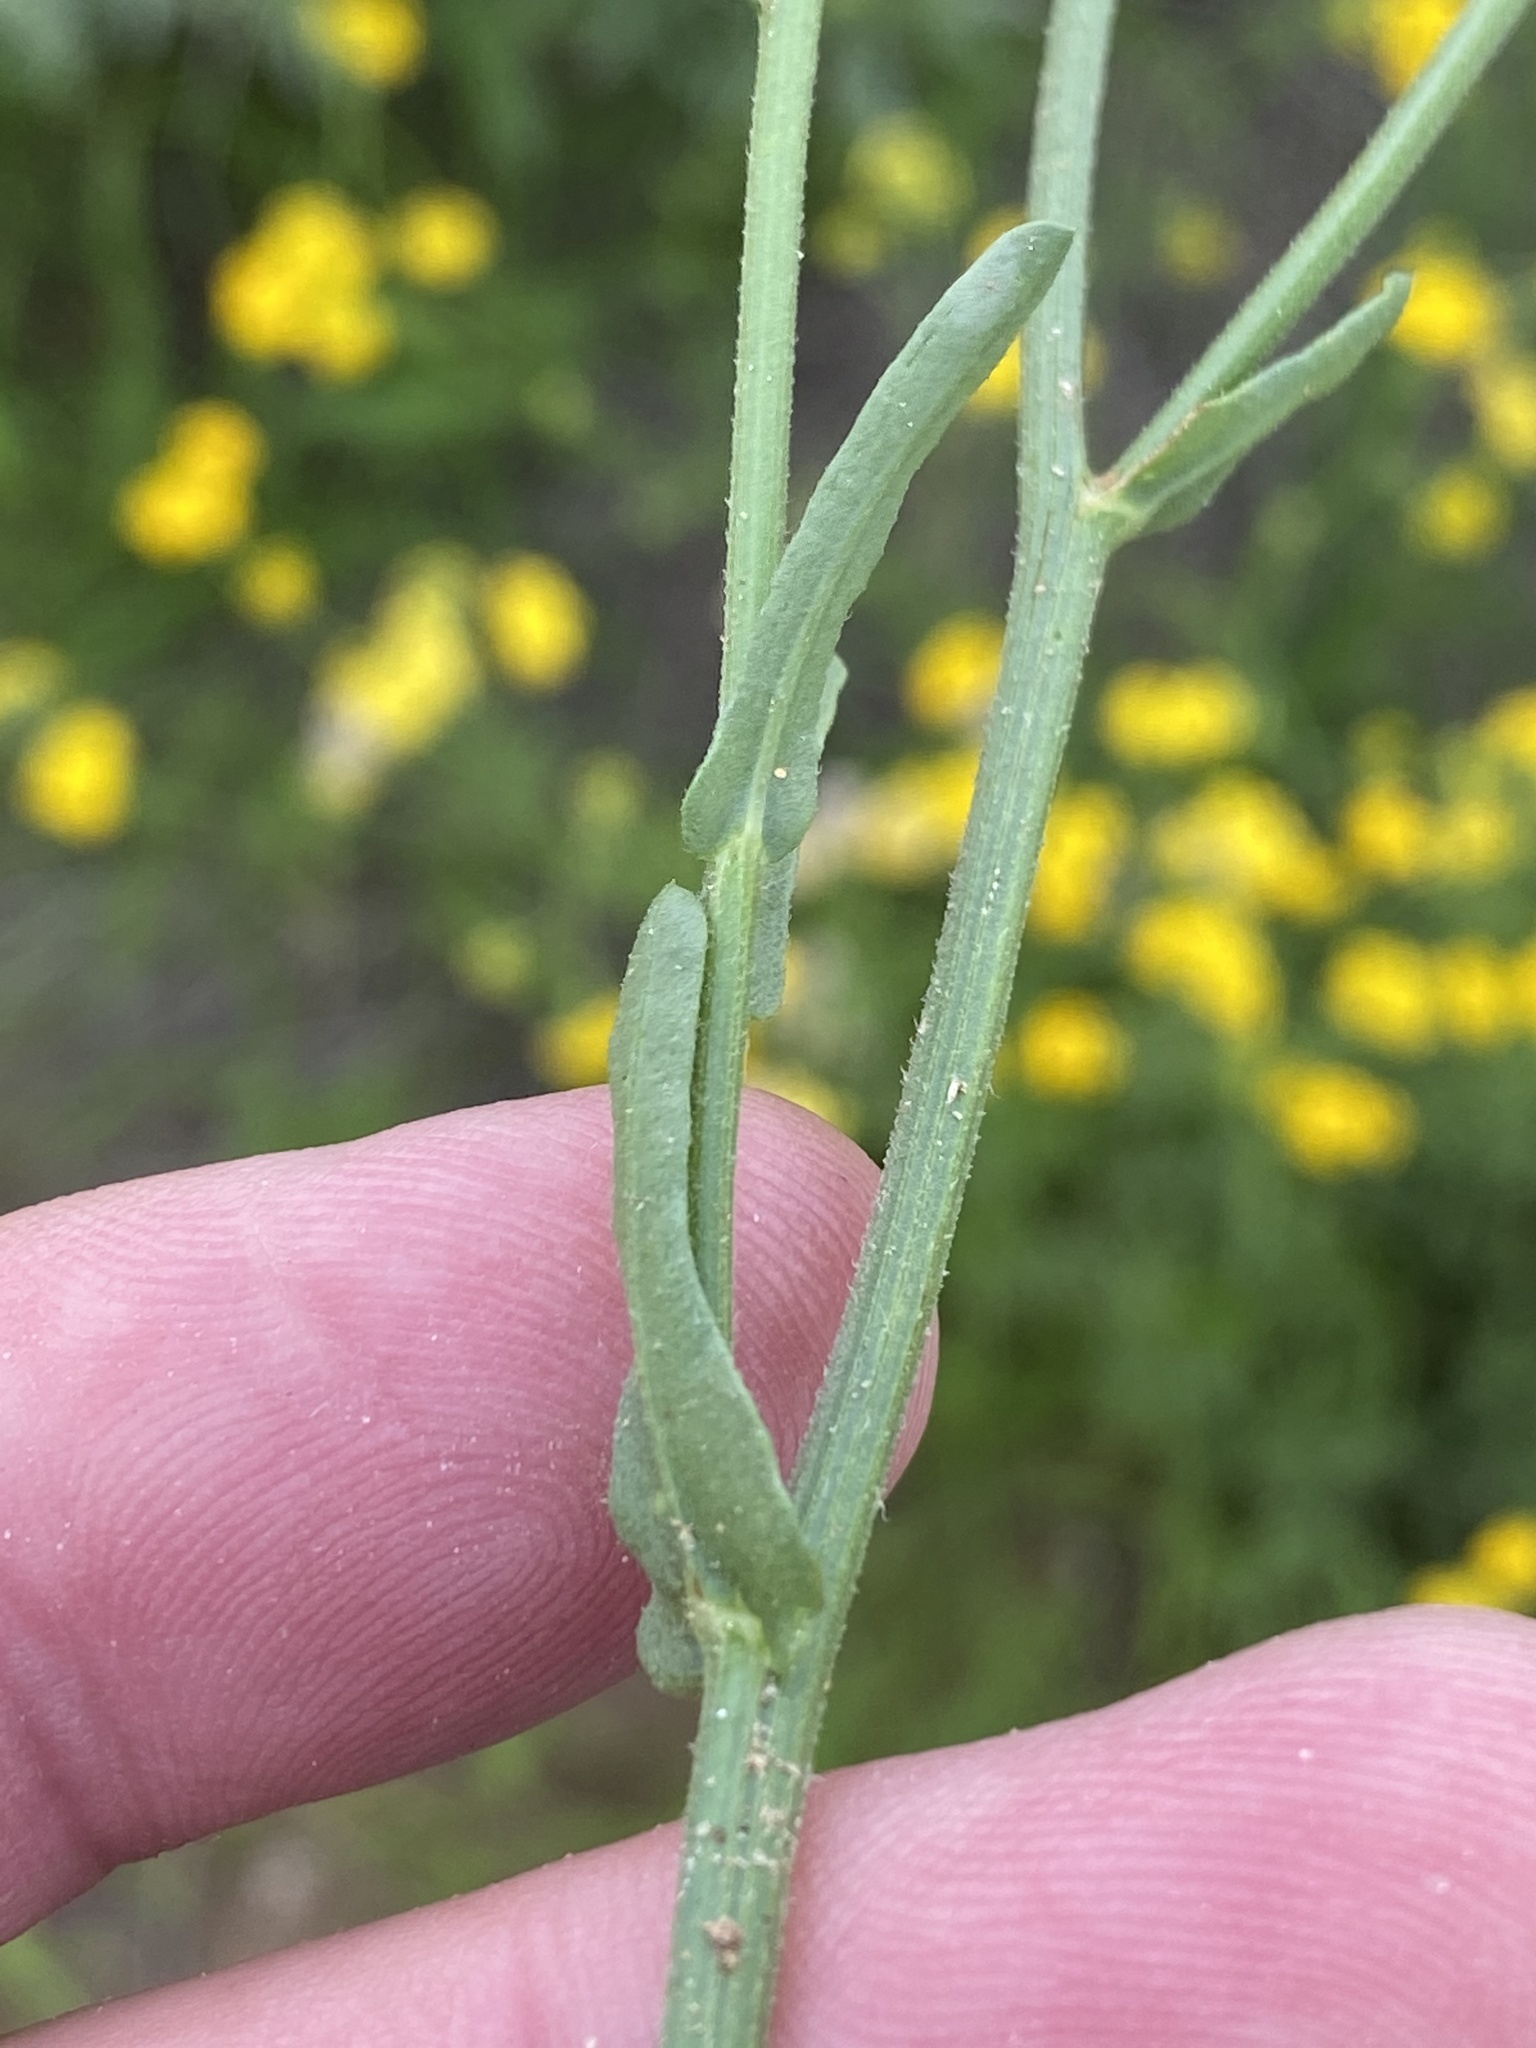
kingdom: Plantae
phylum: Tracheophyta
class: Magnoliopsida
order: Asterales
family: Asteraceae
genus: Nidorella
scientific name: Nidorella resedifolia
